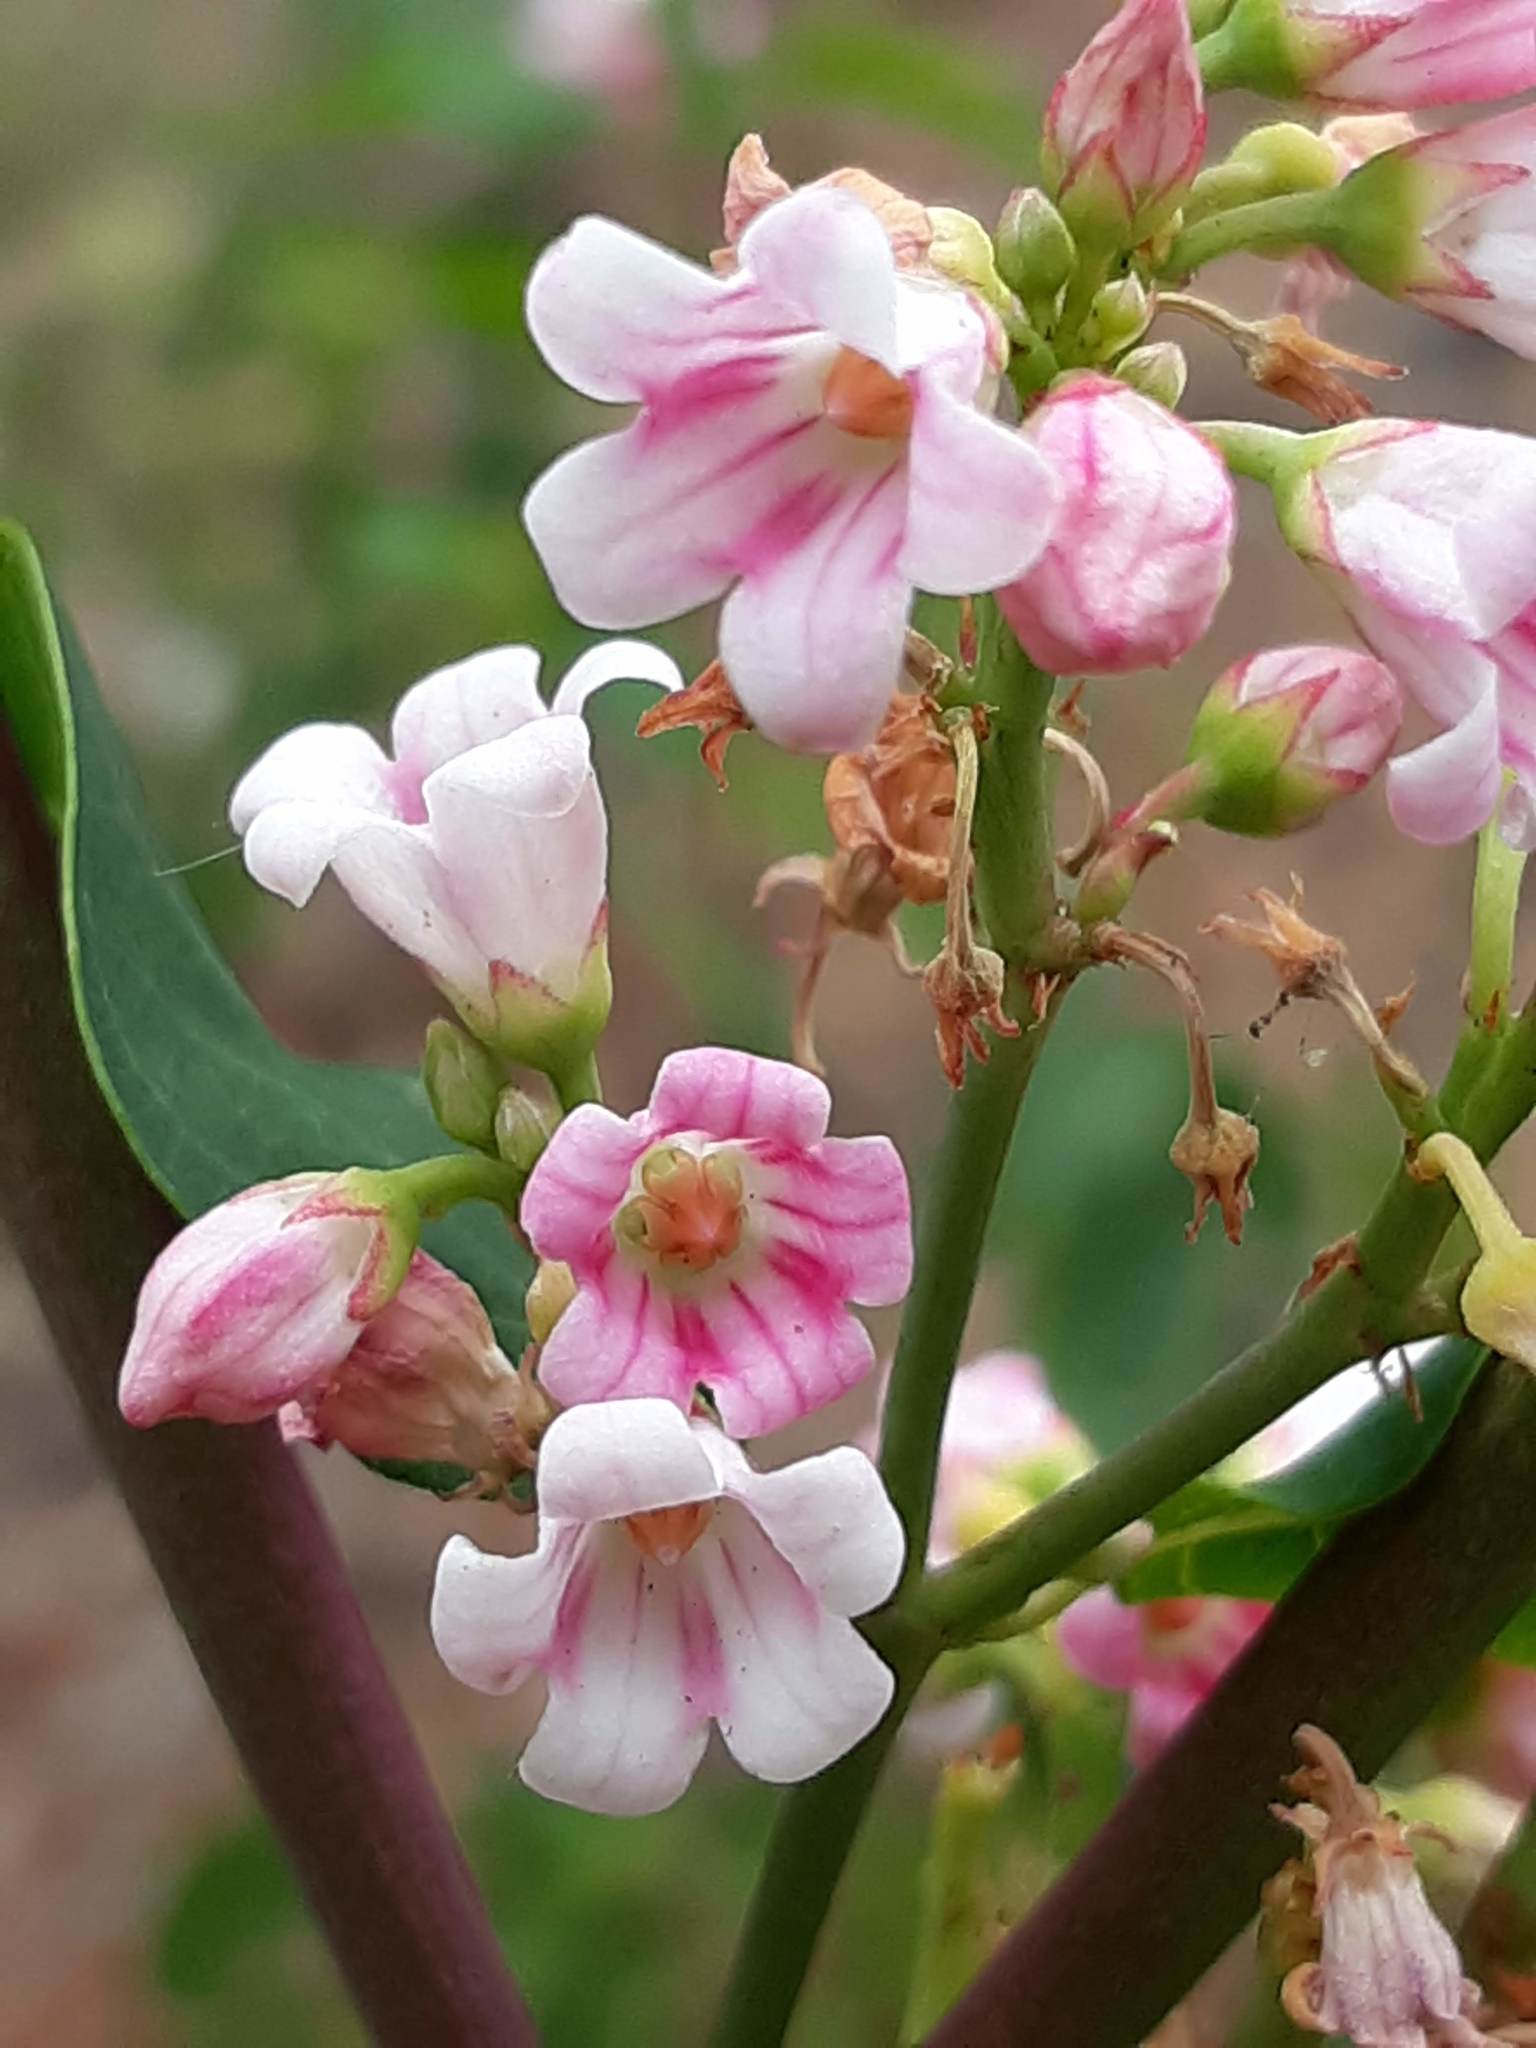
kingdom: Plantae
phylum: Tracheophyta
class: Magnoliopsida
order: Gentianales
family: Apocynaceae
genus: Apocynum
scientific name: Apocynum androsaemifolium
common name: Spreading dogbane
